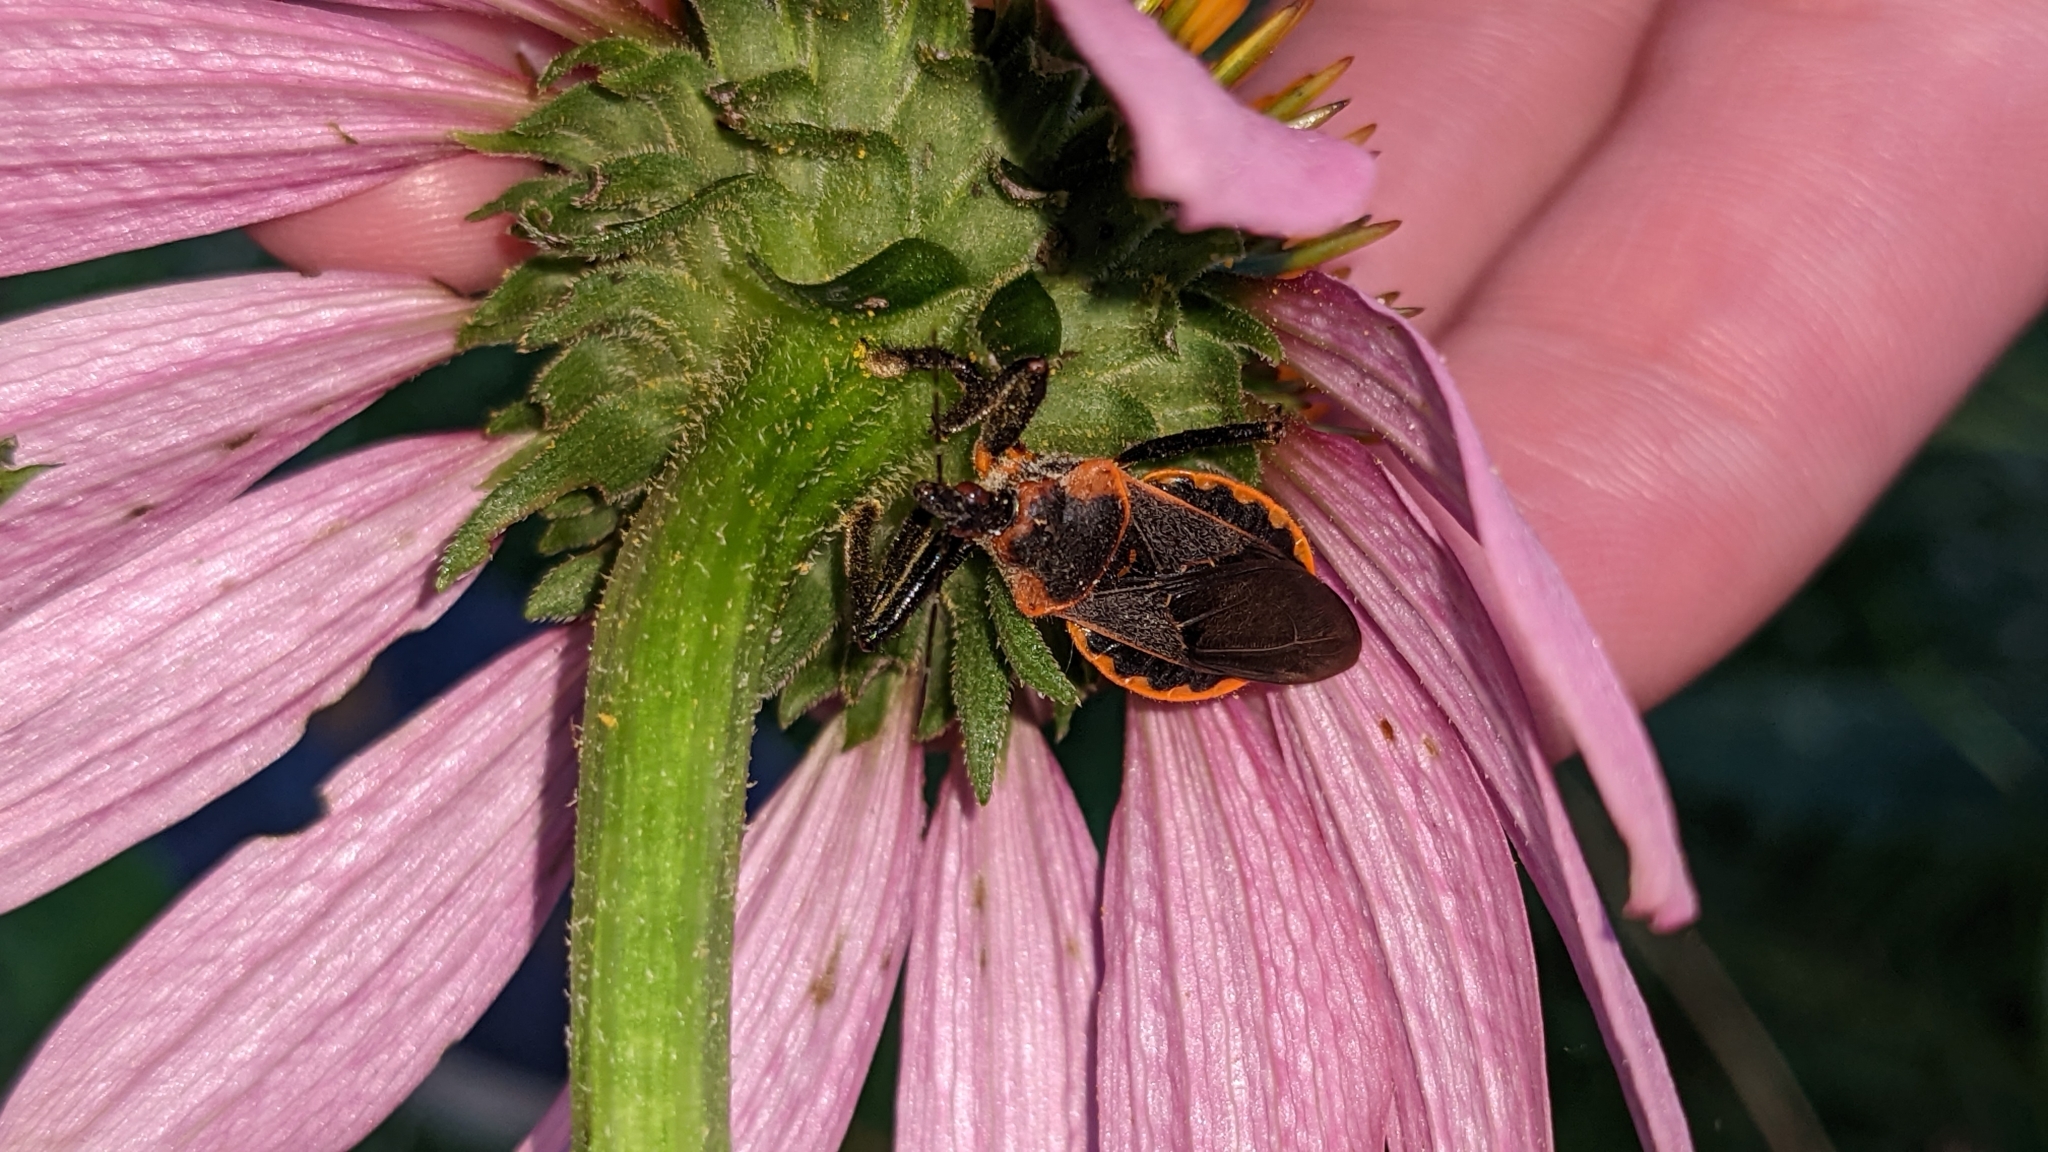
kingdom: Animalia
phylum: Arthropoda
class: Insecta
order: Hemiptera
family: Reduviidae
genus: Apiomerus
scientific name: Apiomerus crassipes
